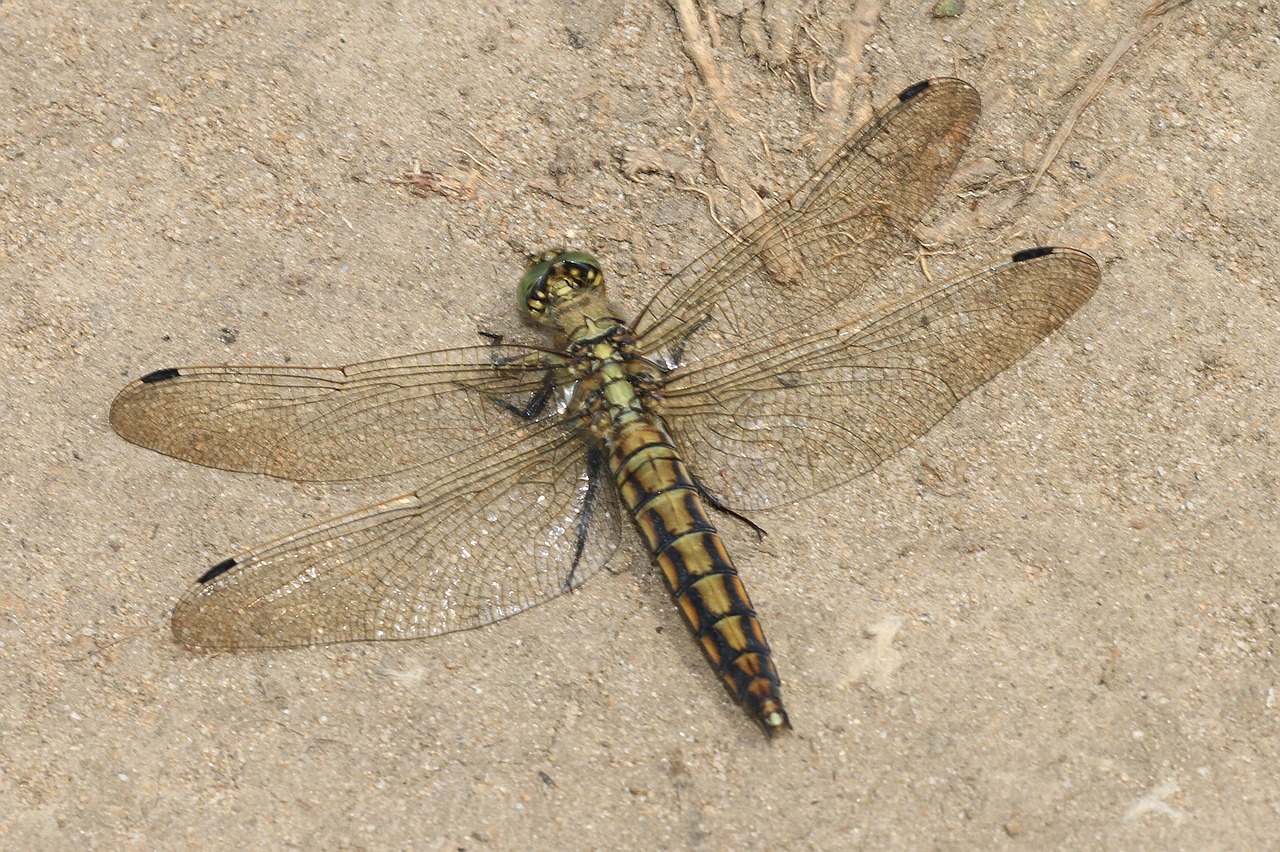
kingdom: Animalia
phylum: Arthropoda
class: Insecta
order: Odonata
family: Libellulidae
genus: Orthetrum
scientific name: Orthetrum cancellatum
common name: Black-tailed skimmer
